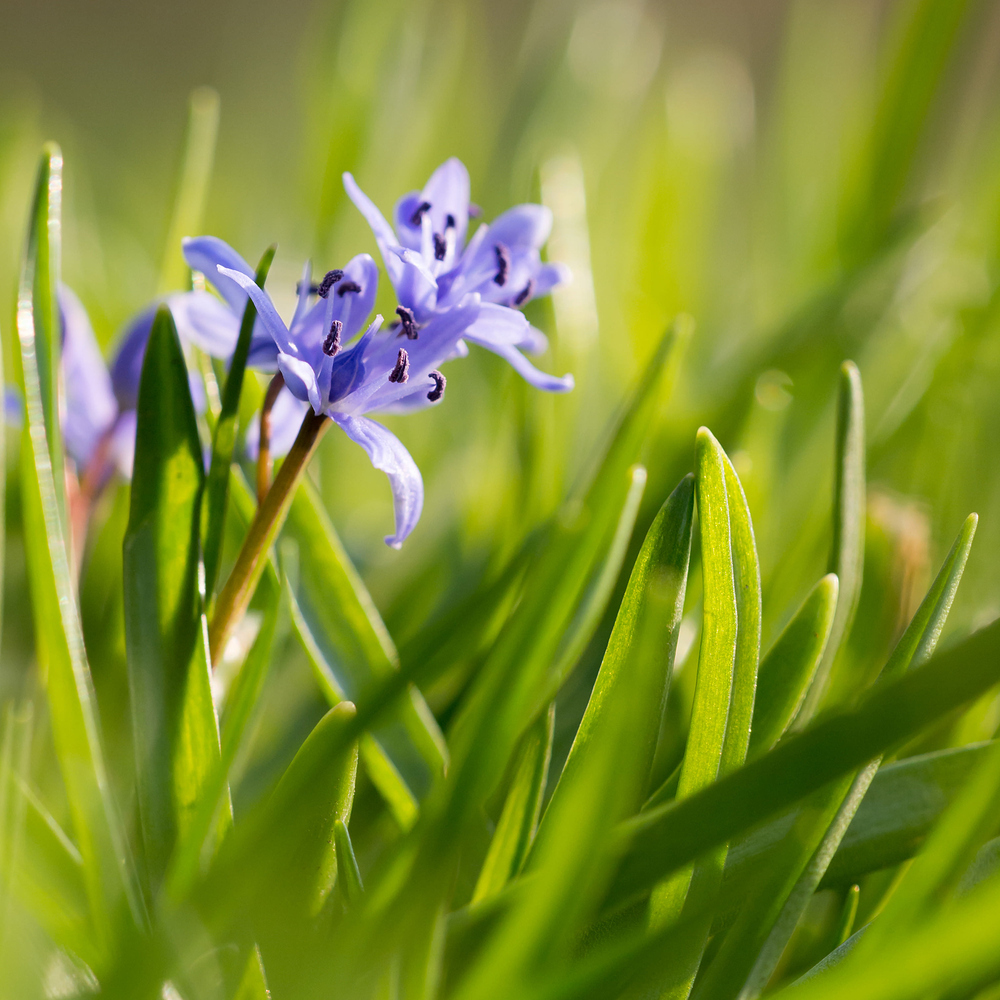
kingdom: Plantae
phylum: Tracheophyta
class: Liliopsida
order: Asparagales
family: Asparagaceae
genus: Scilla
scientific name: Scilla bifolia
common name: Alpine squill
